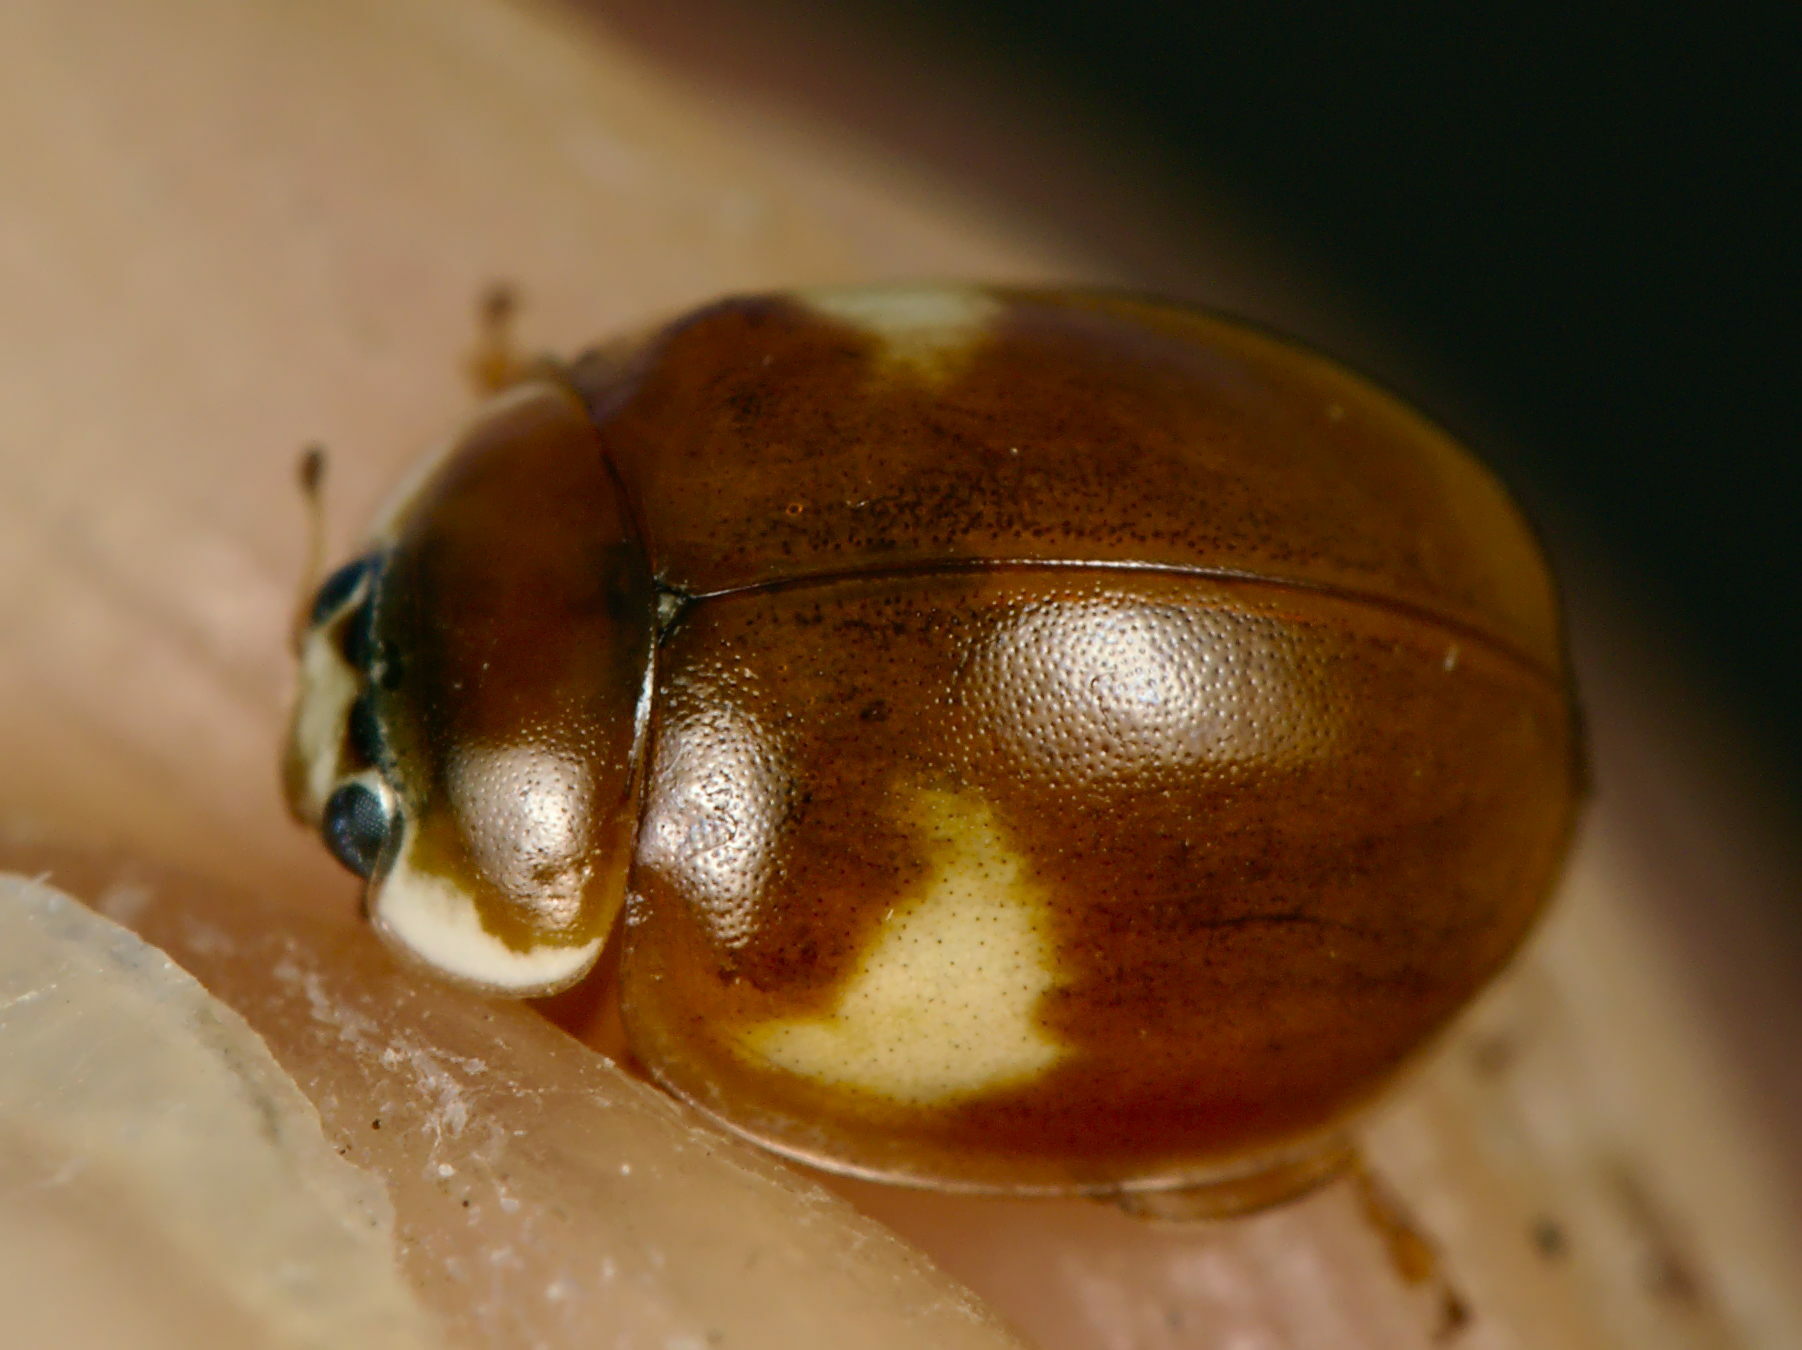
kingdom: Animalia
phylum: Arthropoda
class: Insecta
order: Coleoptera
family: Coccinellidae
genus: Adalia
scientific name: Adalia decempunctata
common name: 10-spot ladybird
